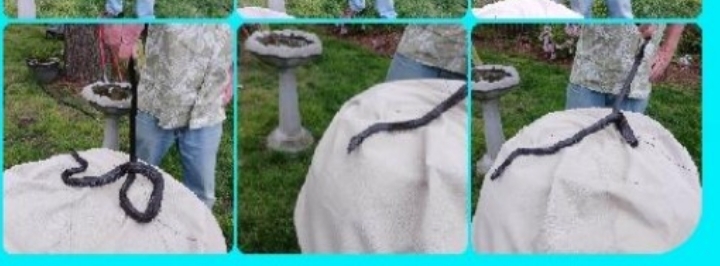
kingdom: Animalia
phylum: Chordata
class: Squamata
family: Colubridae
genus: Pantherophis
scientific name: Pantherophis alleghaniensis
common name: Eastern rat snake
